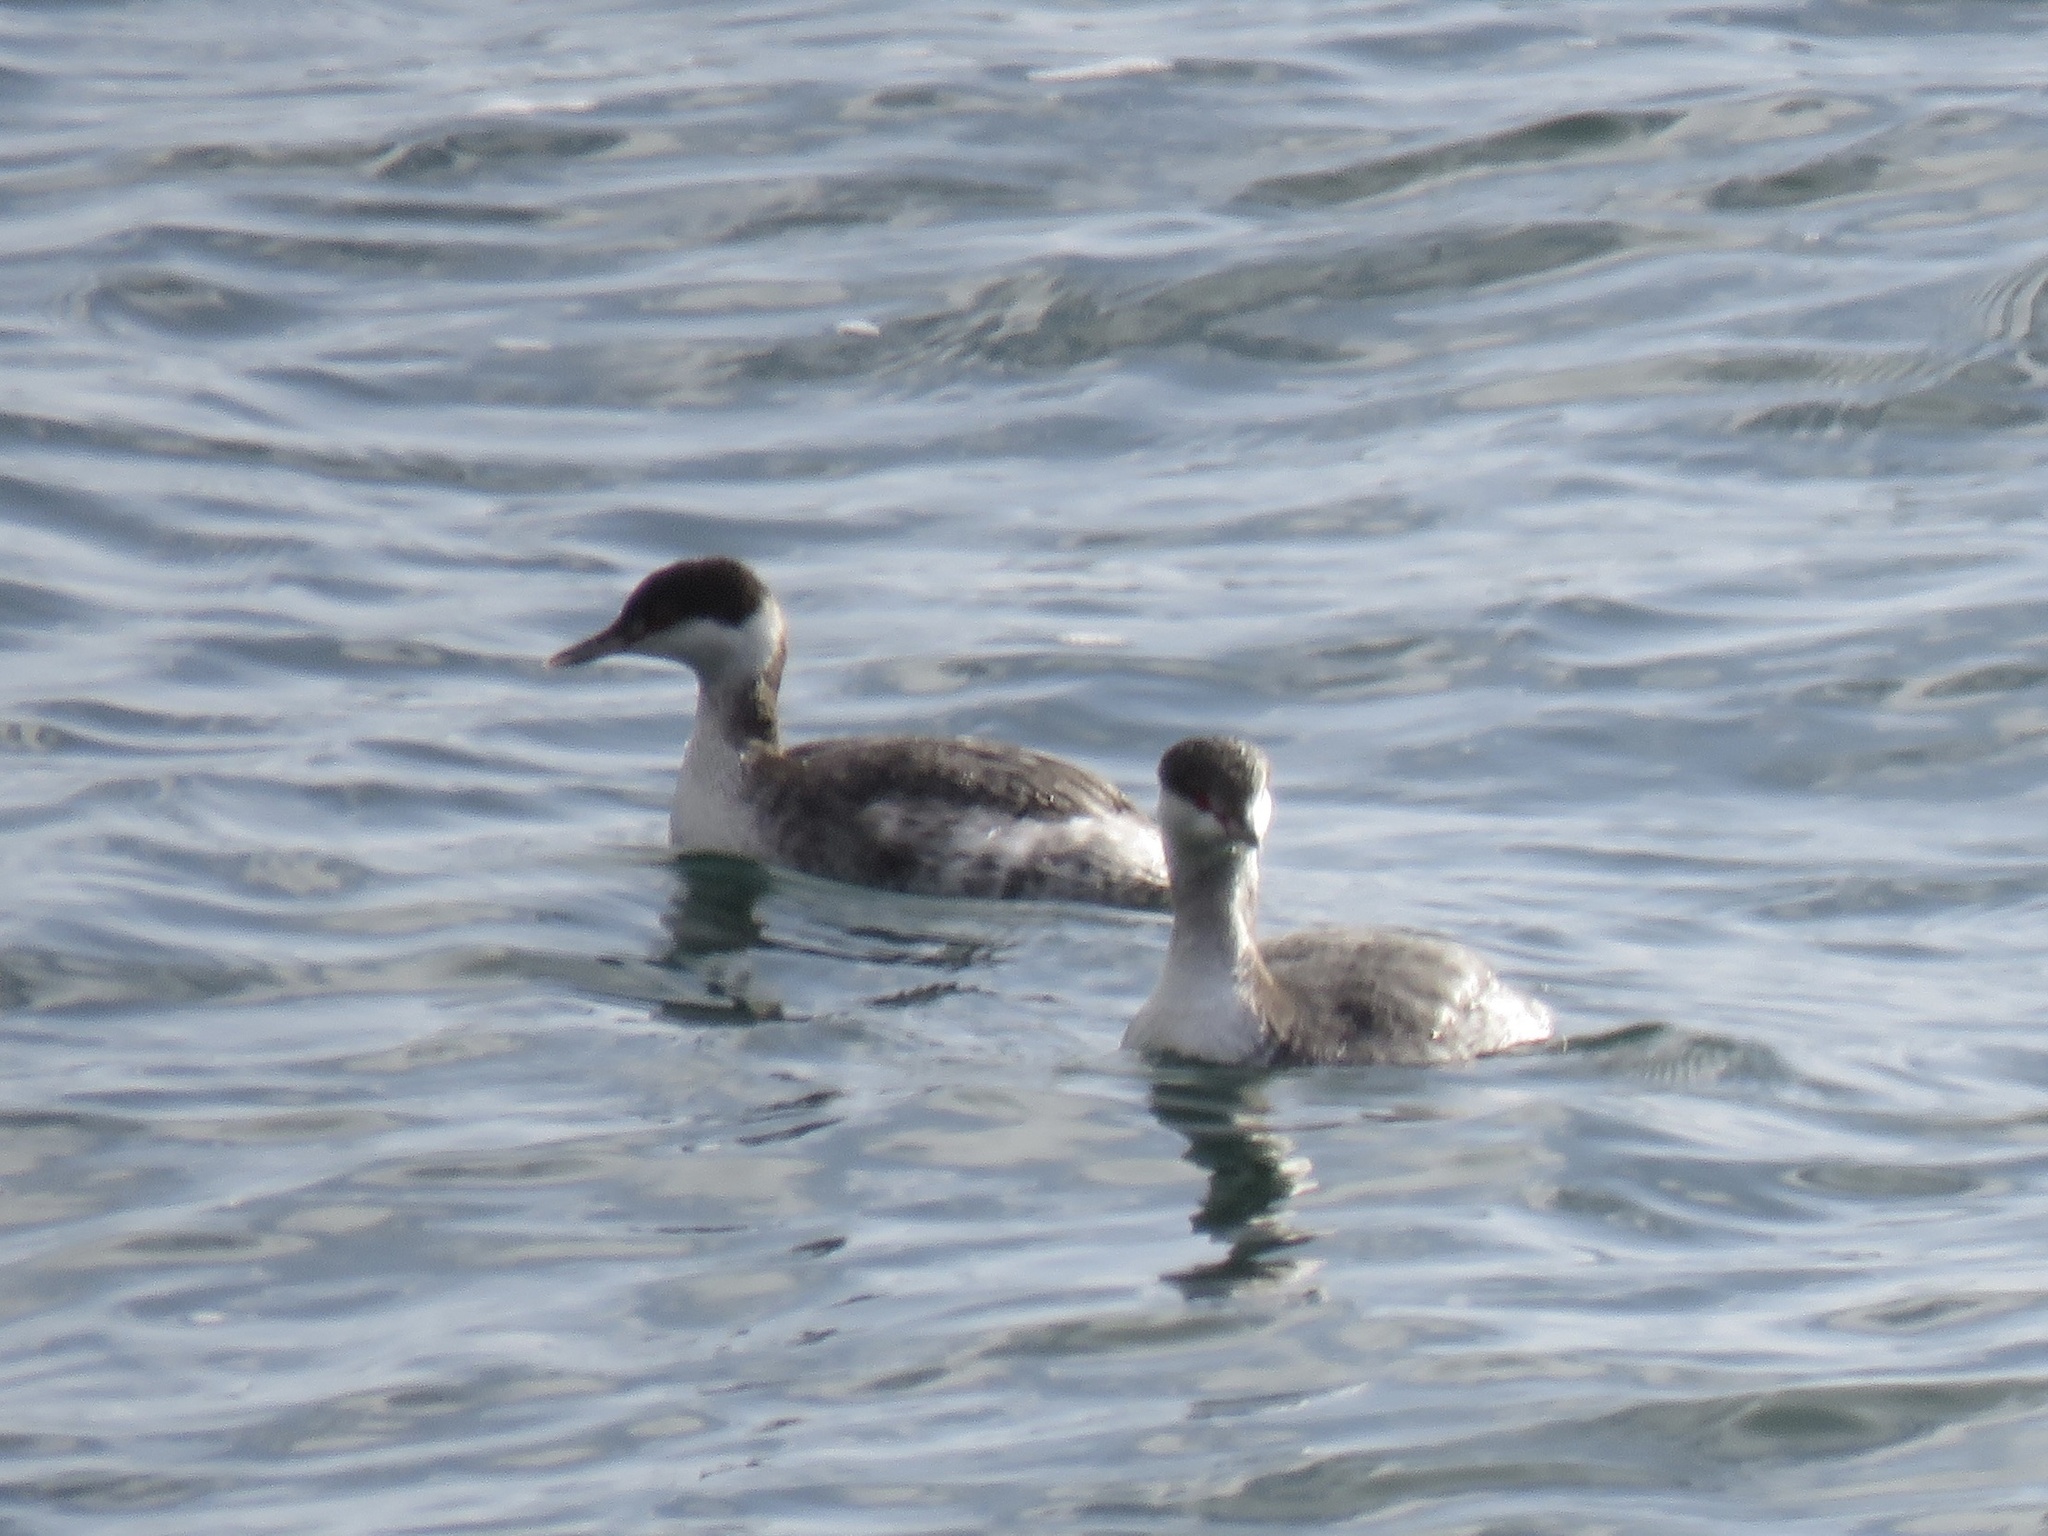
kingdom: Animalia
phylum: Chordata
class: Aves
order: Podicipediformes
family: Podicipedidae
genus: Podiceps
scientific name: Podiceps auritus
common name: Horned grebe
